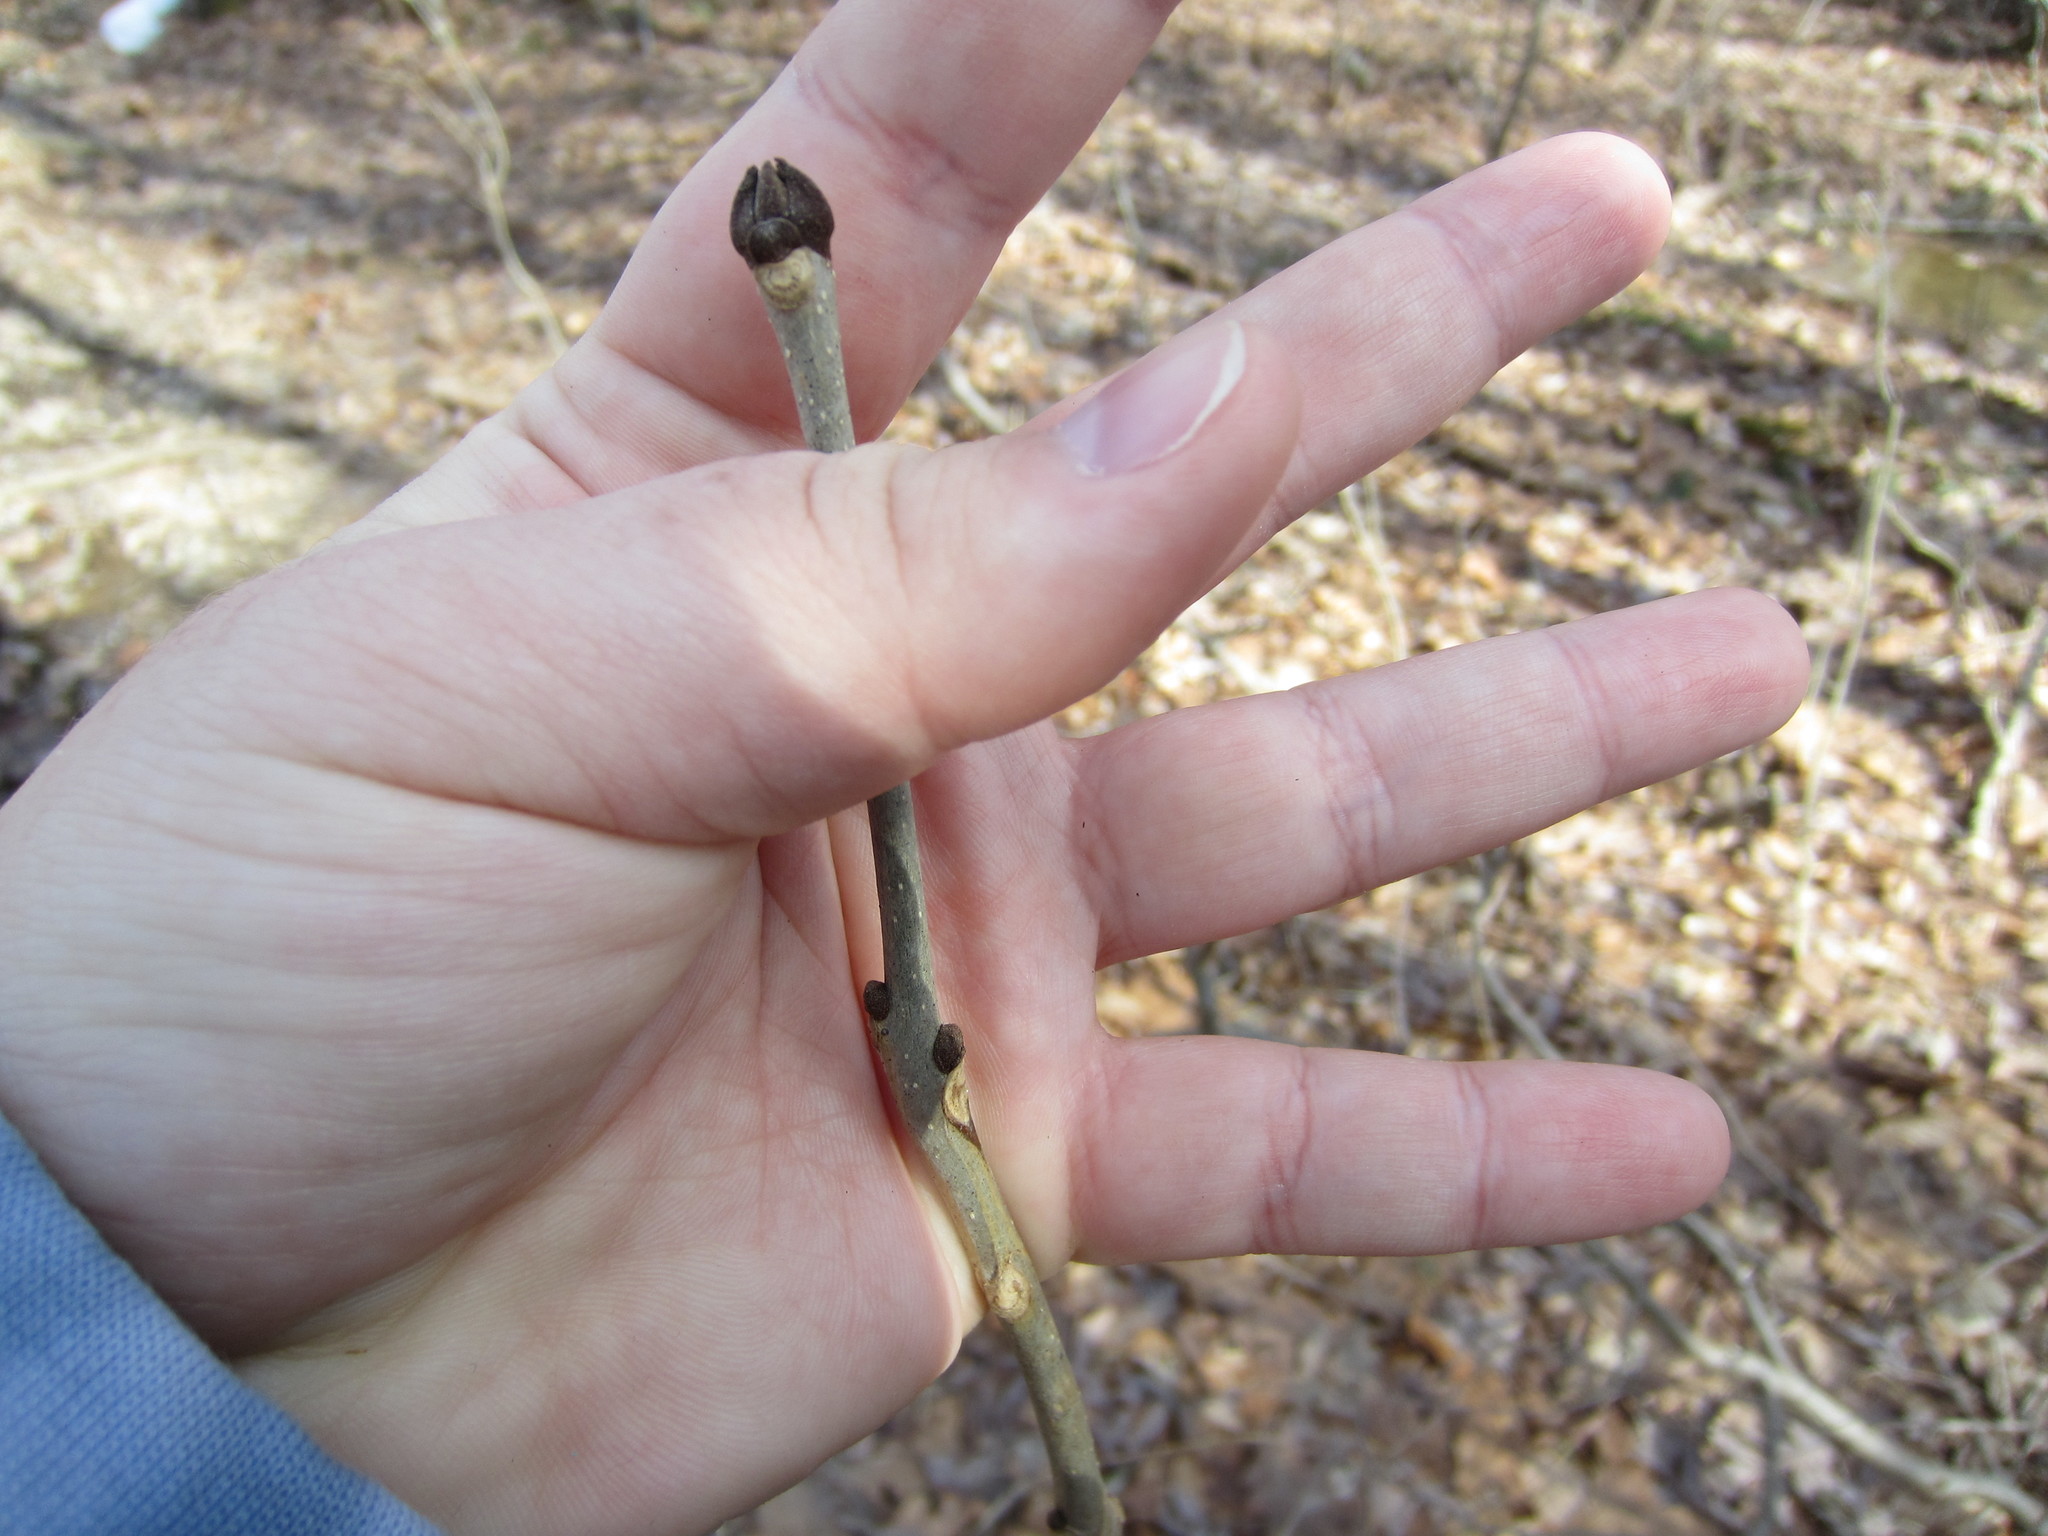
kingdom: Plantae
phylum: Tracheophyta
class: Magnoliopsida
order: Lamiales
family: Oleaceae
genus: Fraxinus
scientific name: Fraxinus americana
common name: White ash
